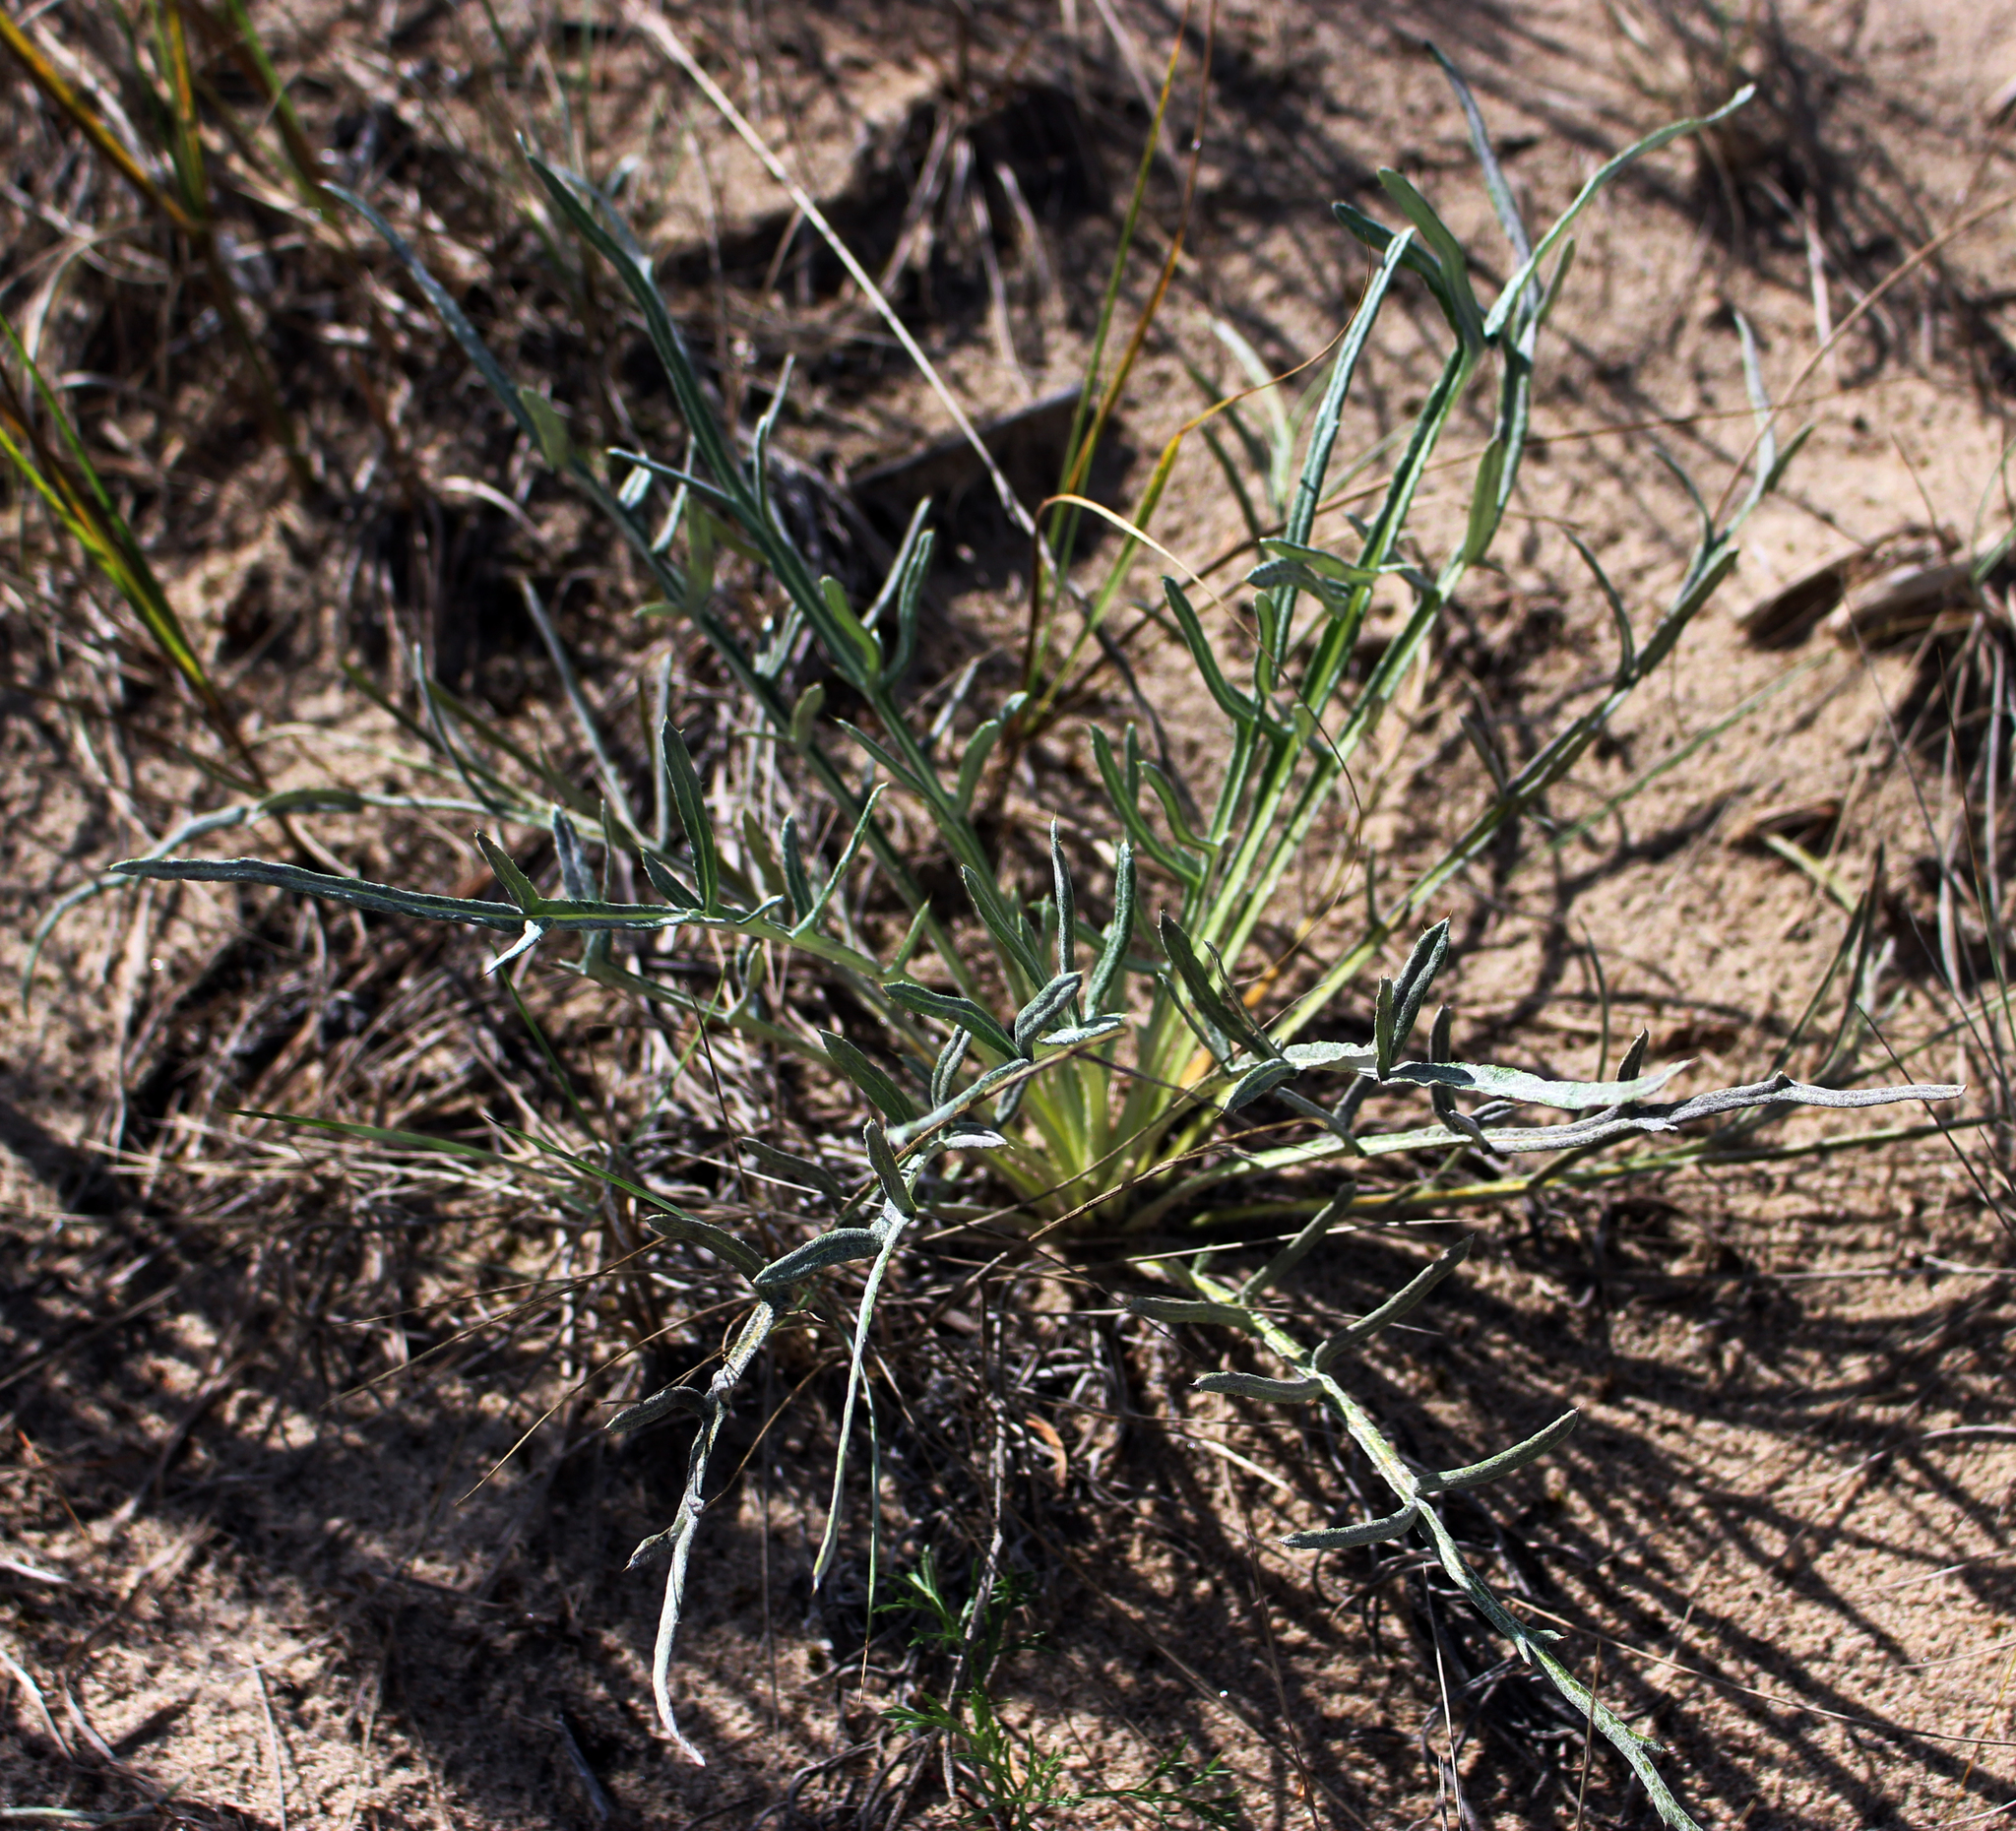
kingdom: Plantae
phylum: Tracheophyta
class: Magnoliopsida
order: Asterales
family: Asteraceae
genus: Cirsium
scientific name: Cirsium pitcheri
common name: Dune thistle
